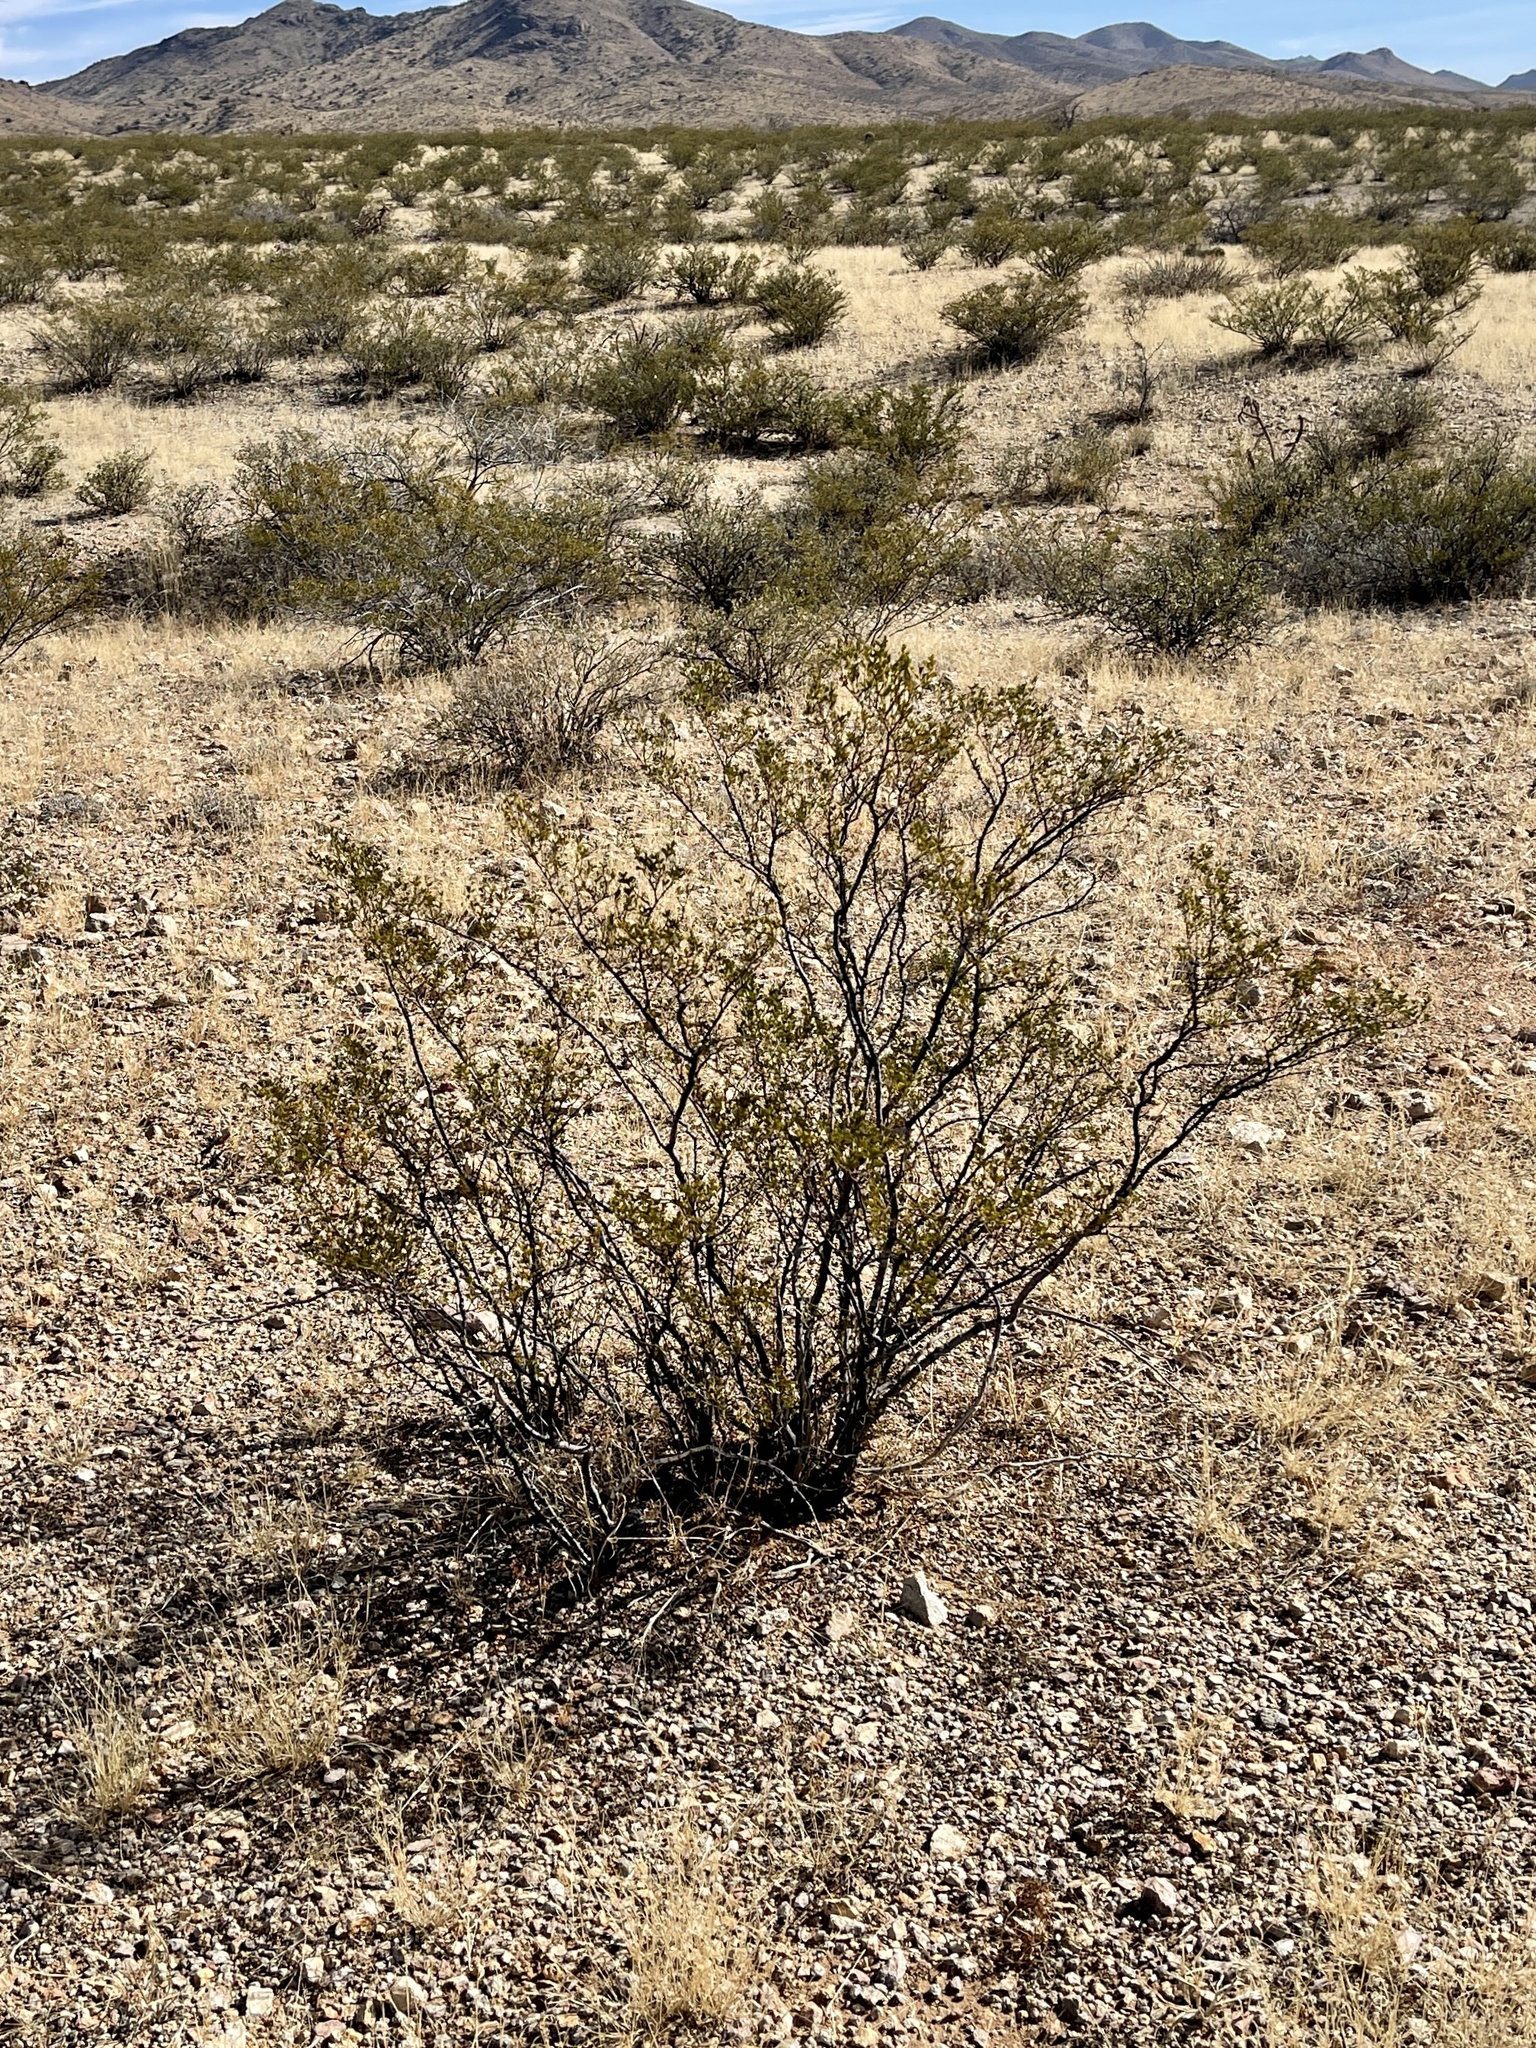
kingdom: Plantae
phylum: Tracheophyta
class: Magnoliopsida
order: Zygophyllales
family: Zygophyllaceae
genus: Larrea
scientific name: Larrea tridentata
